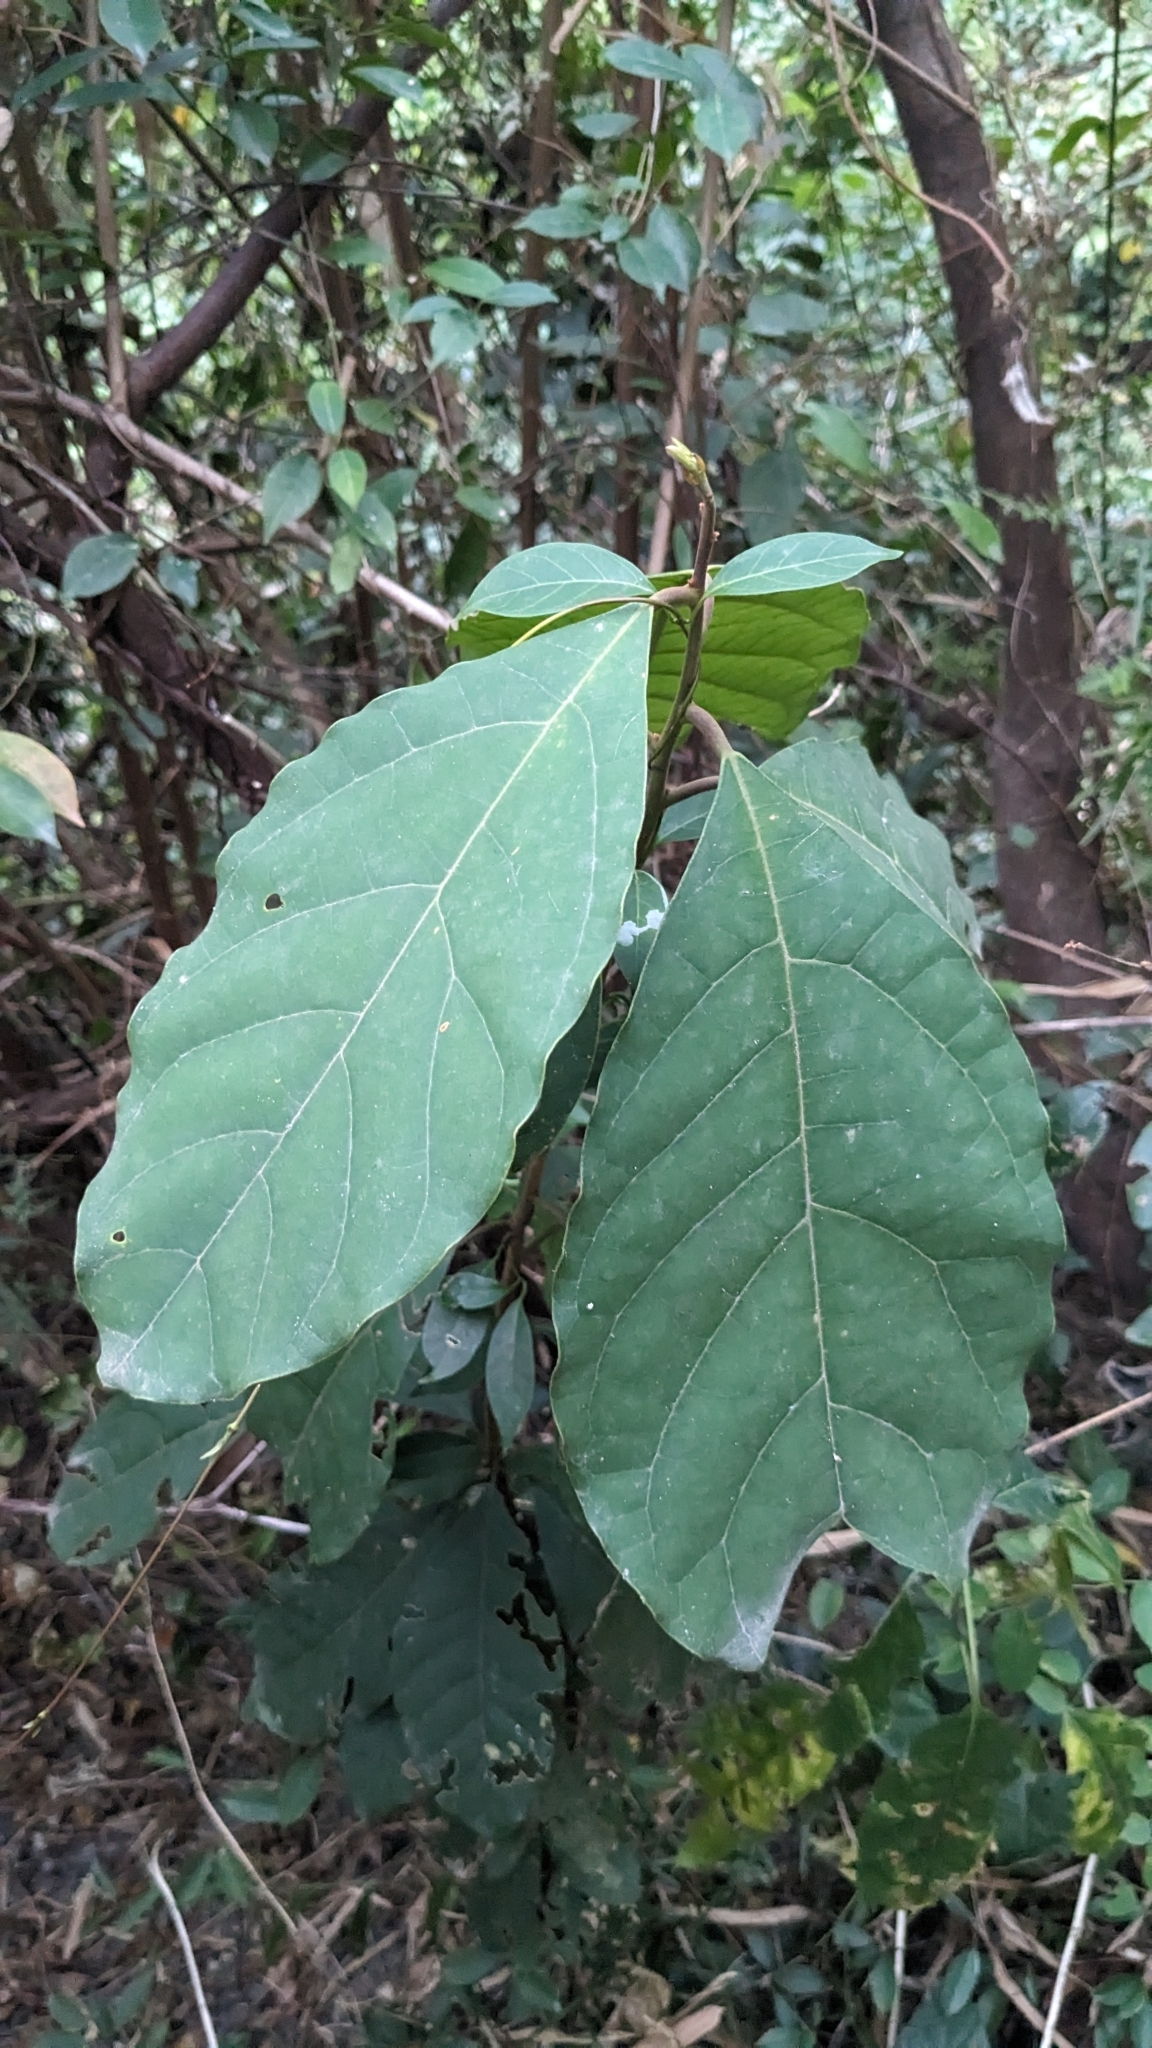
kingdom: Plantae
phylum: Tracheophyta
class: Magnoliopsida
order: Laurales
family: Lauraceae
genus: Litsea
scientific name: Litsea akoensis
